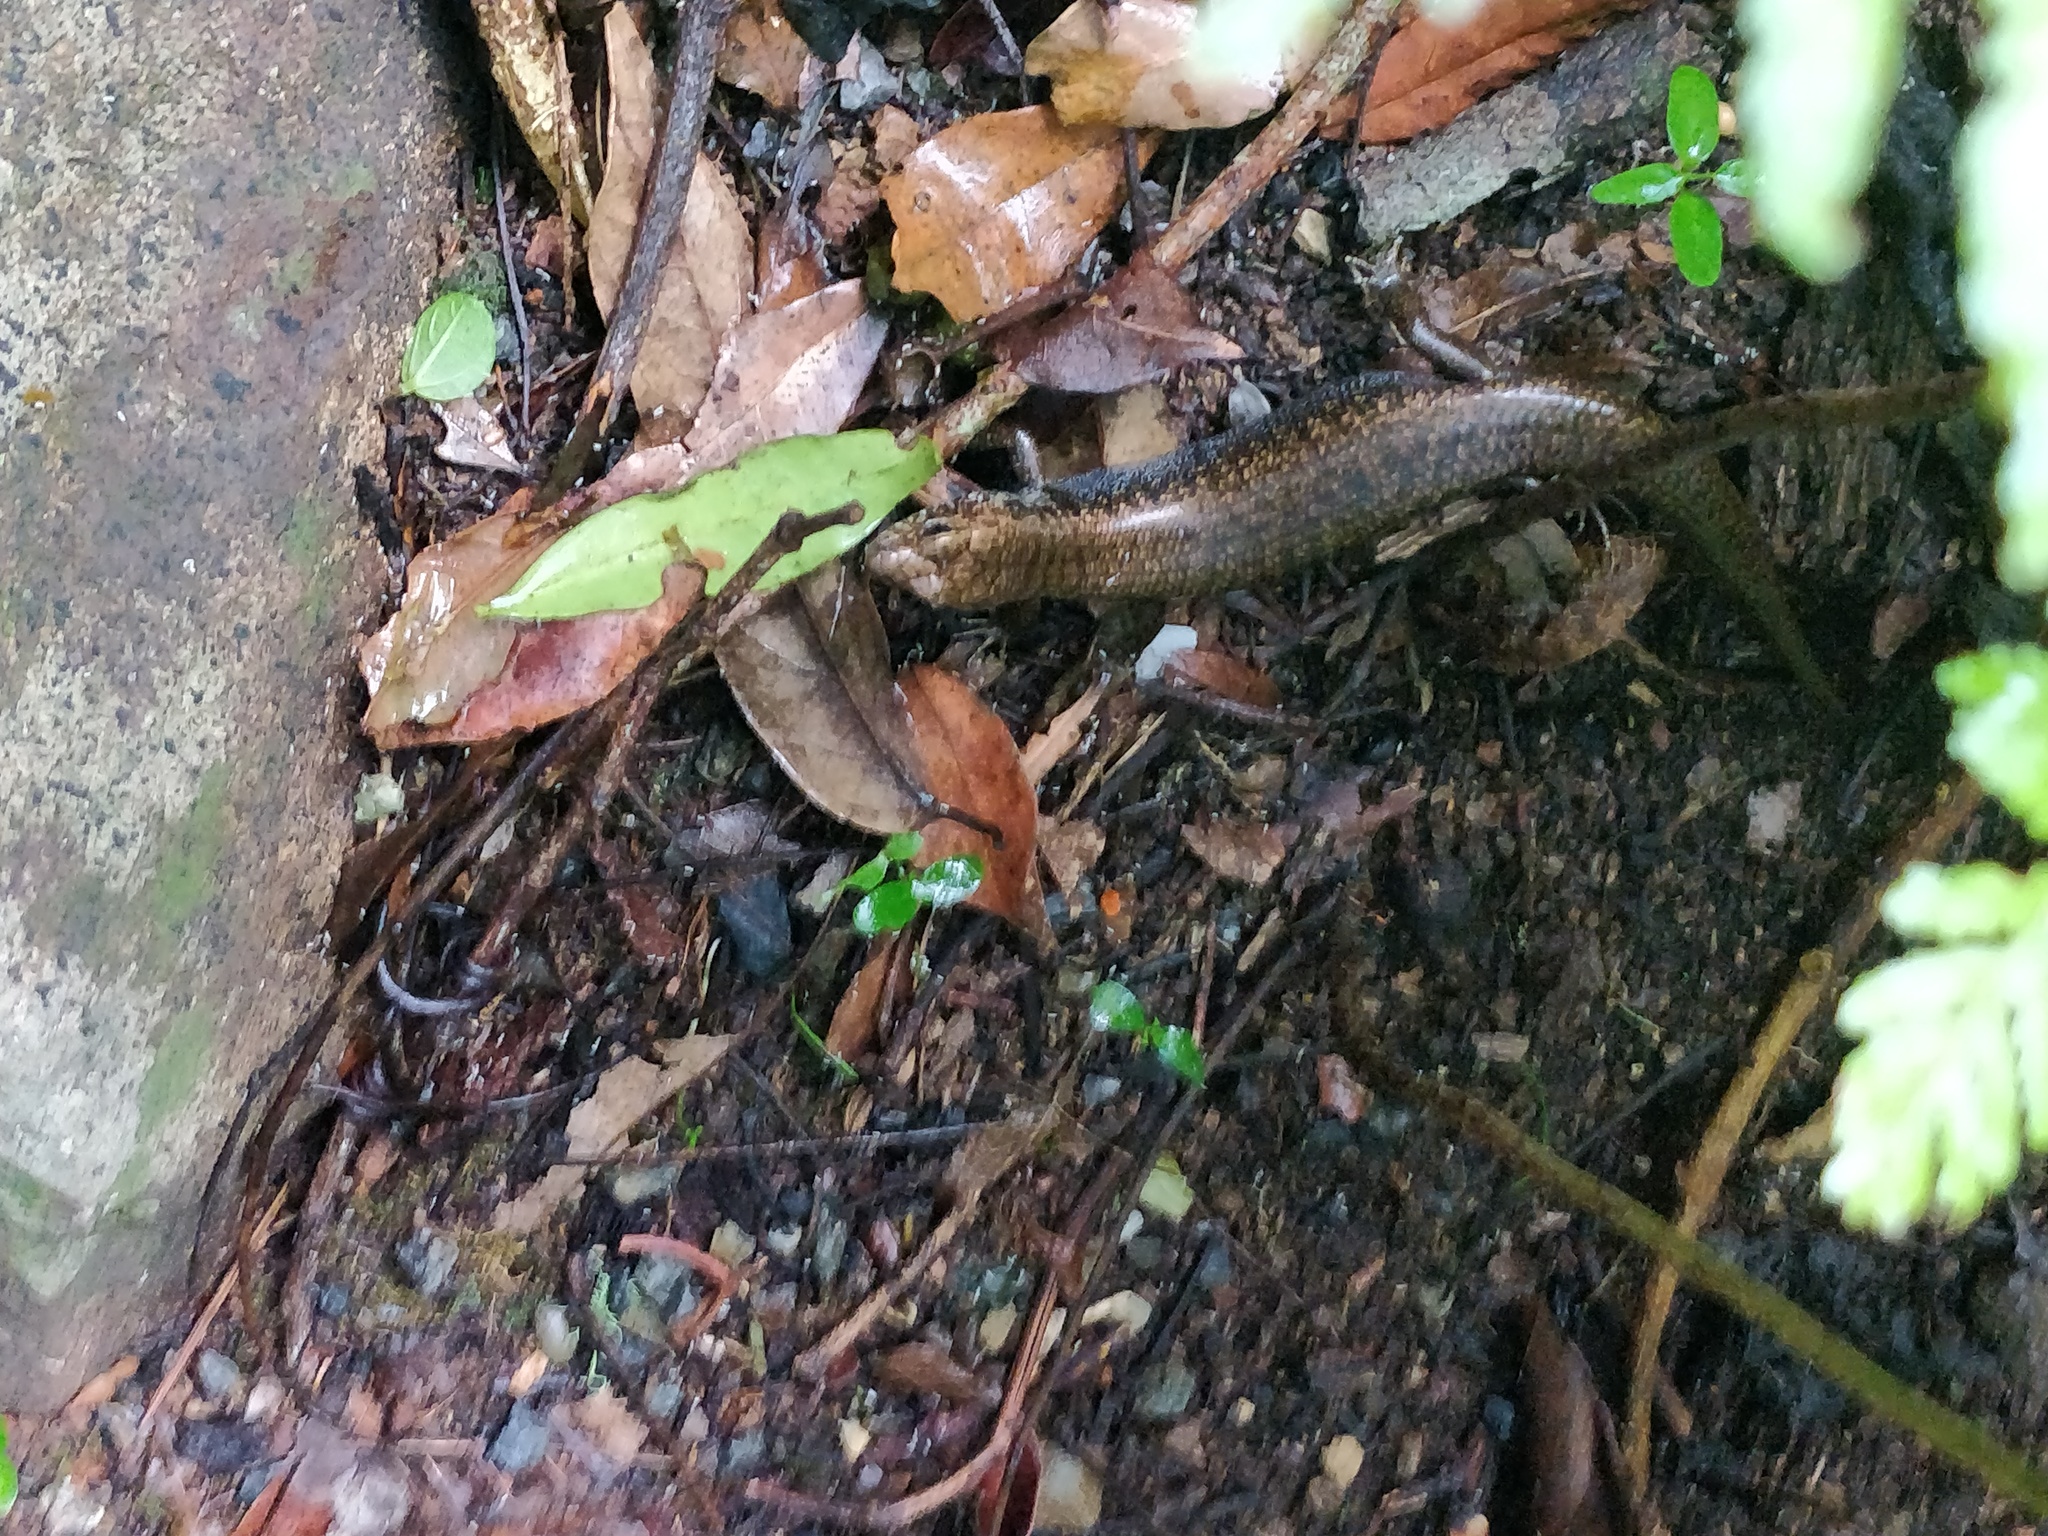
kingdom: Animalia
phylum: Chordata
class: Squamata
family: Scincidae
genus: Silvascincus
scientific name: Silvascincus murrayi
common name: Blue-speckled forest-skink
